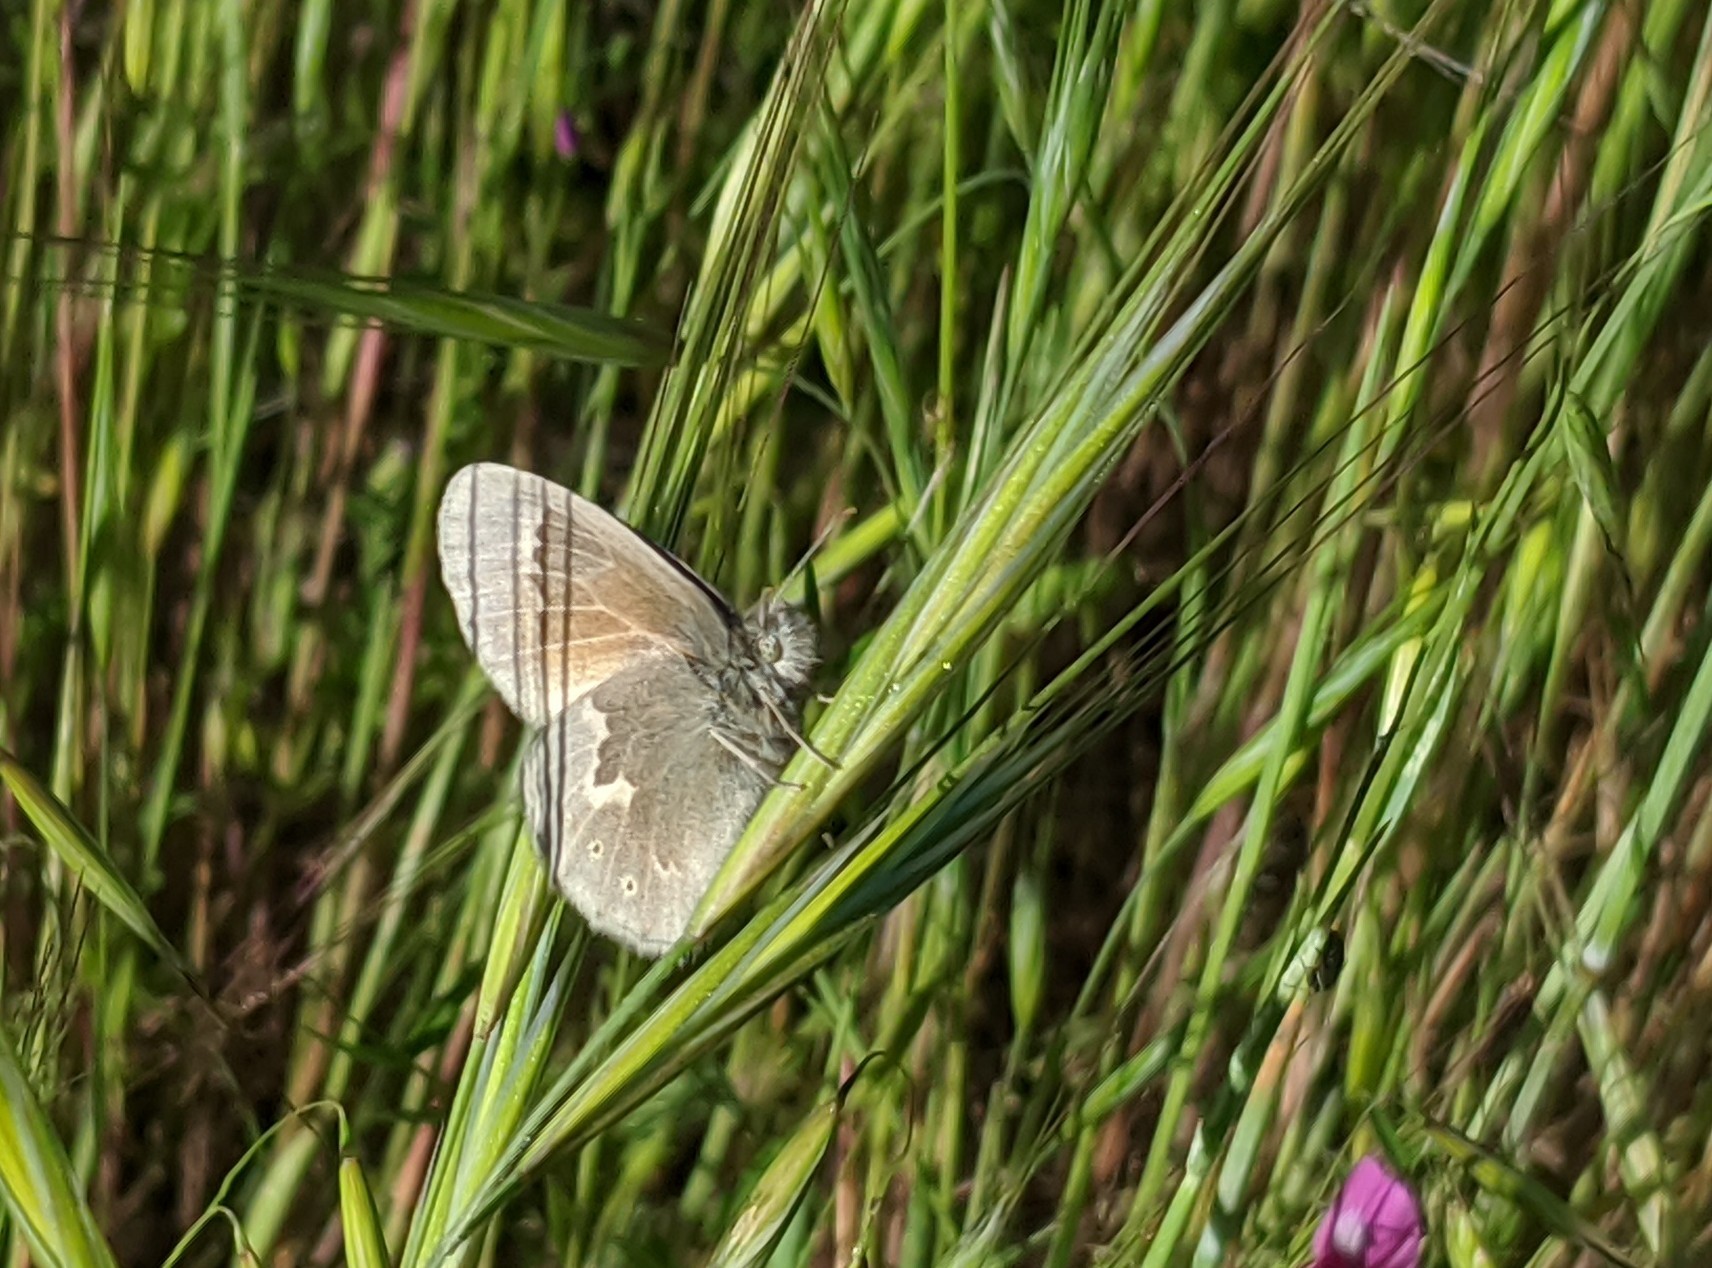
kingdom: Animalia
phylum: Arthropoda
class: Insecta
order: Lepidoptera
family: Nymphalidae
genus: Coenonympha
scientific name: Coenonympha california
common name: Common ringlet
